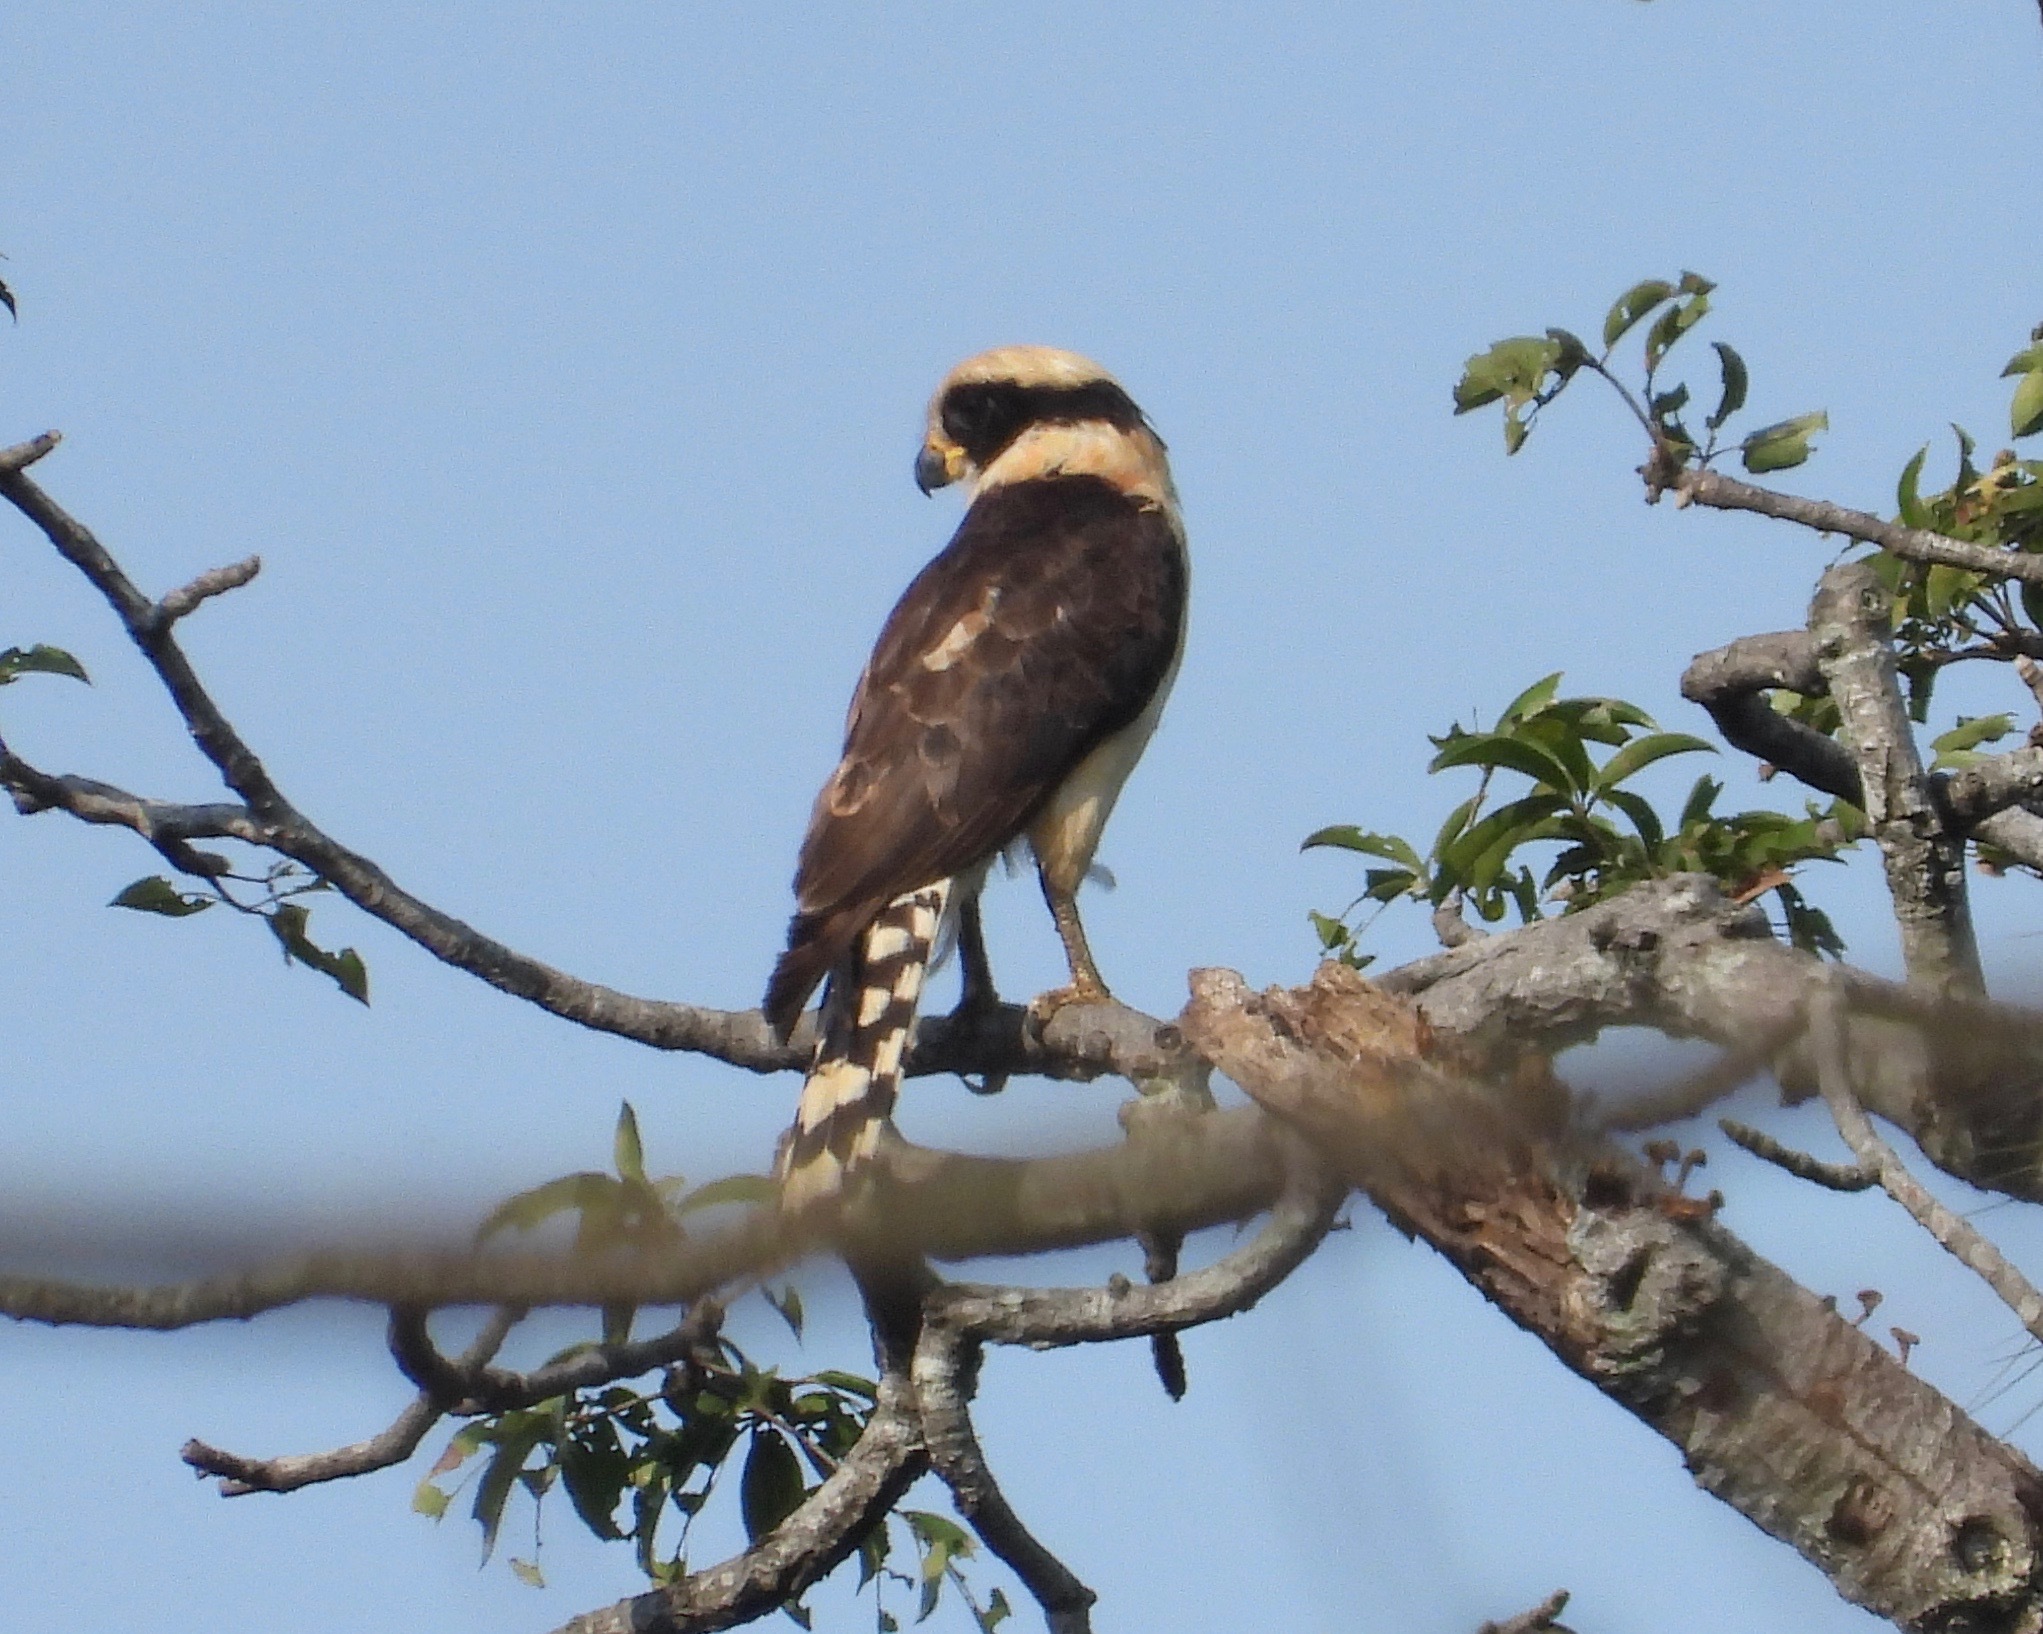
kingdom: Animalia
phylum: Chordata
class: Aves
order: Falconiformes
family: Falconidae
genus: Herpetotheres
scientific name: Herpetotheres cachinnans
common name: Laughing falcon
